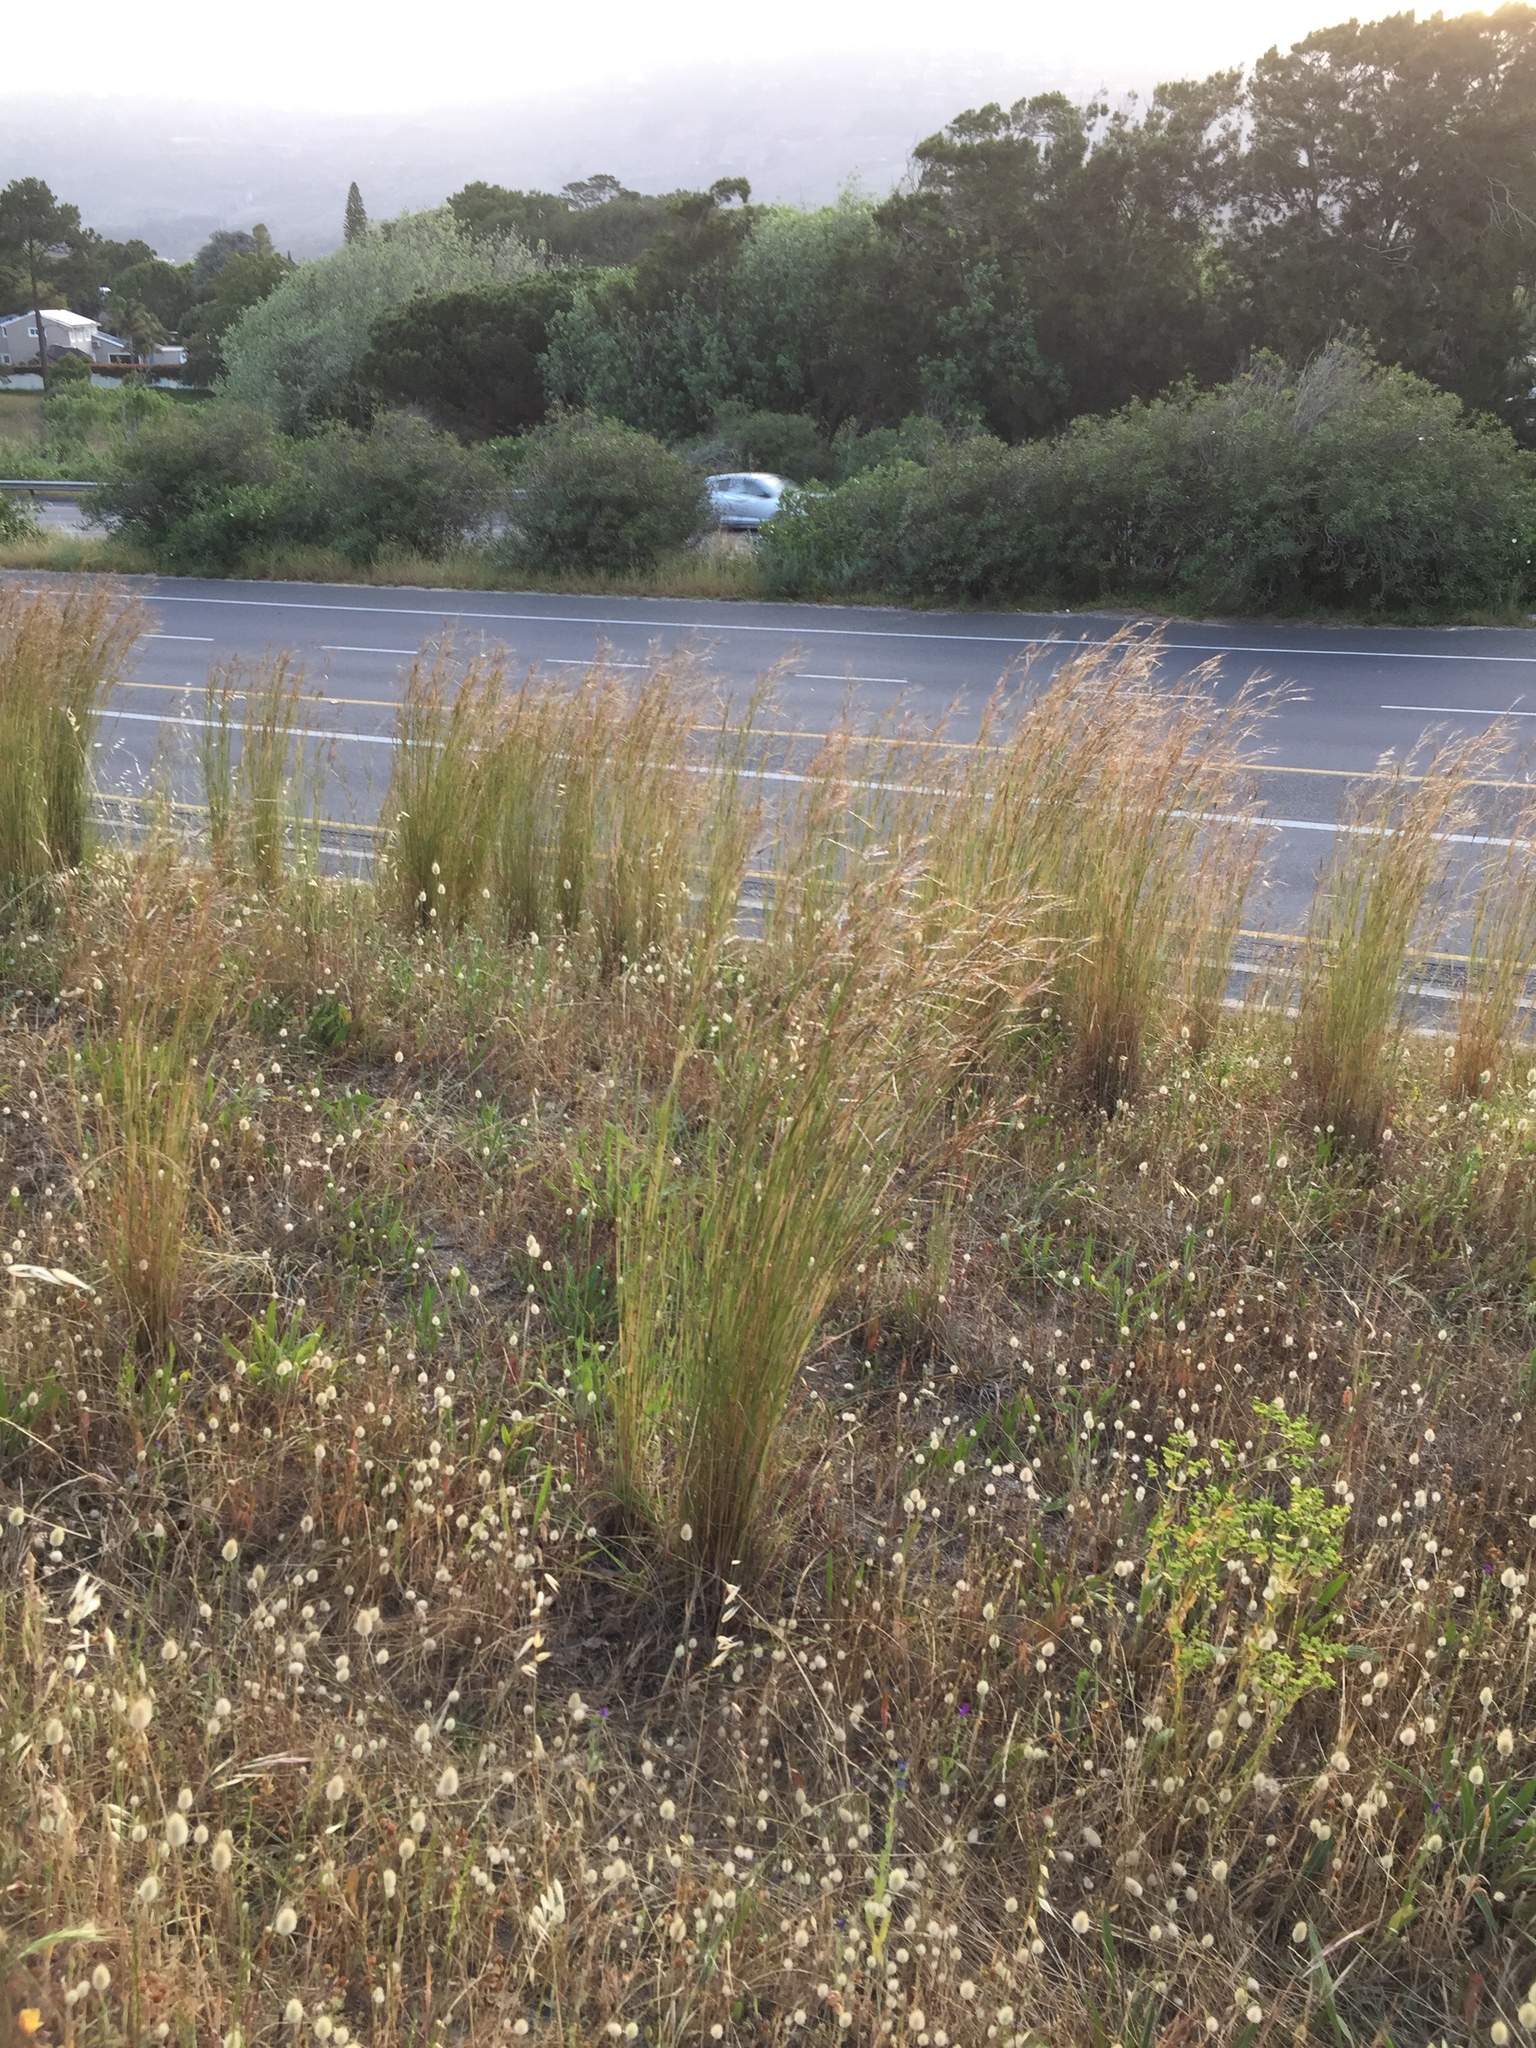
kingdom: Plantae
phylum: Tracheophyta
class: Liliopsida
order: Poales
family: Poaceae
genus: Hyparrhenia
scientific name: Hyparrhenia hirta
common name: Thatching grass
